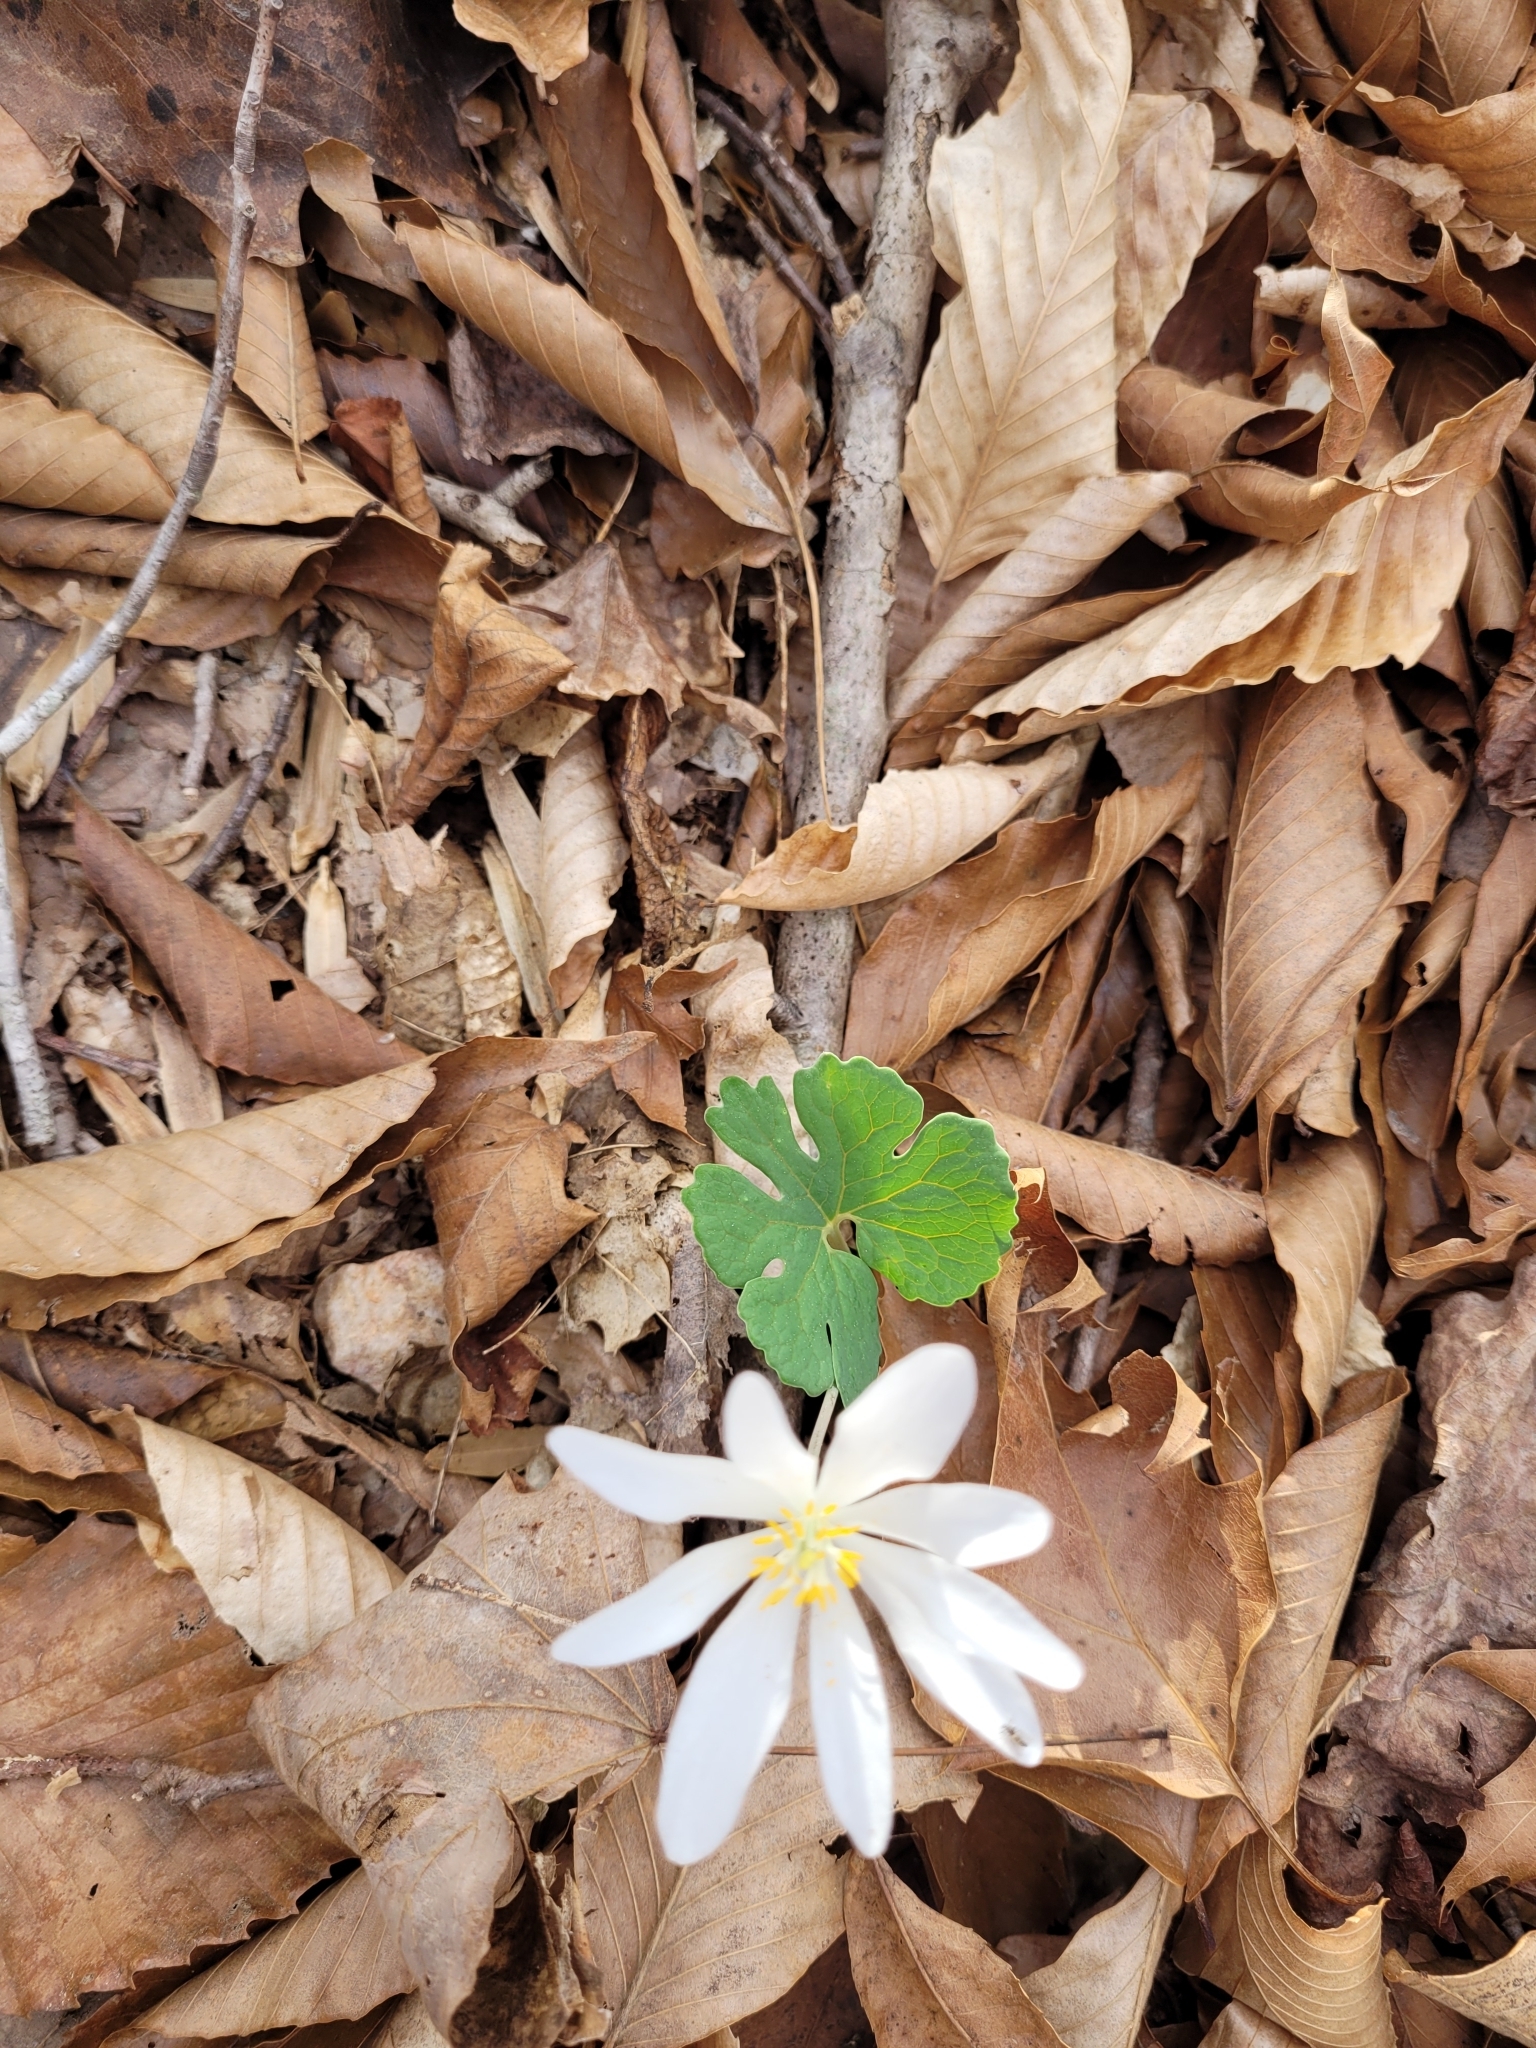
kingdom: Plantae
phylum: Tracheophyta
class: Magnoliopsida
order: Ranunculales
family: Papaveraceae
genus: Sanguinaria
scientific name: Sanguinaria canadensis
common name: Bloodroot
